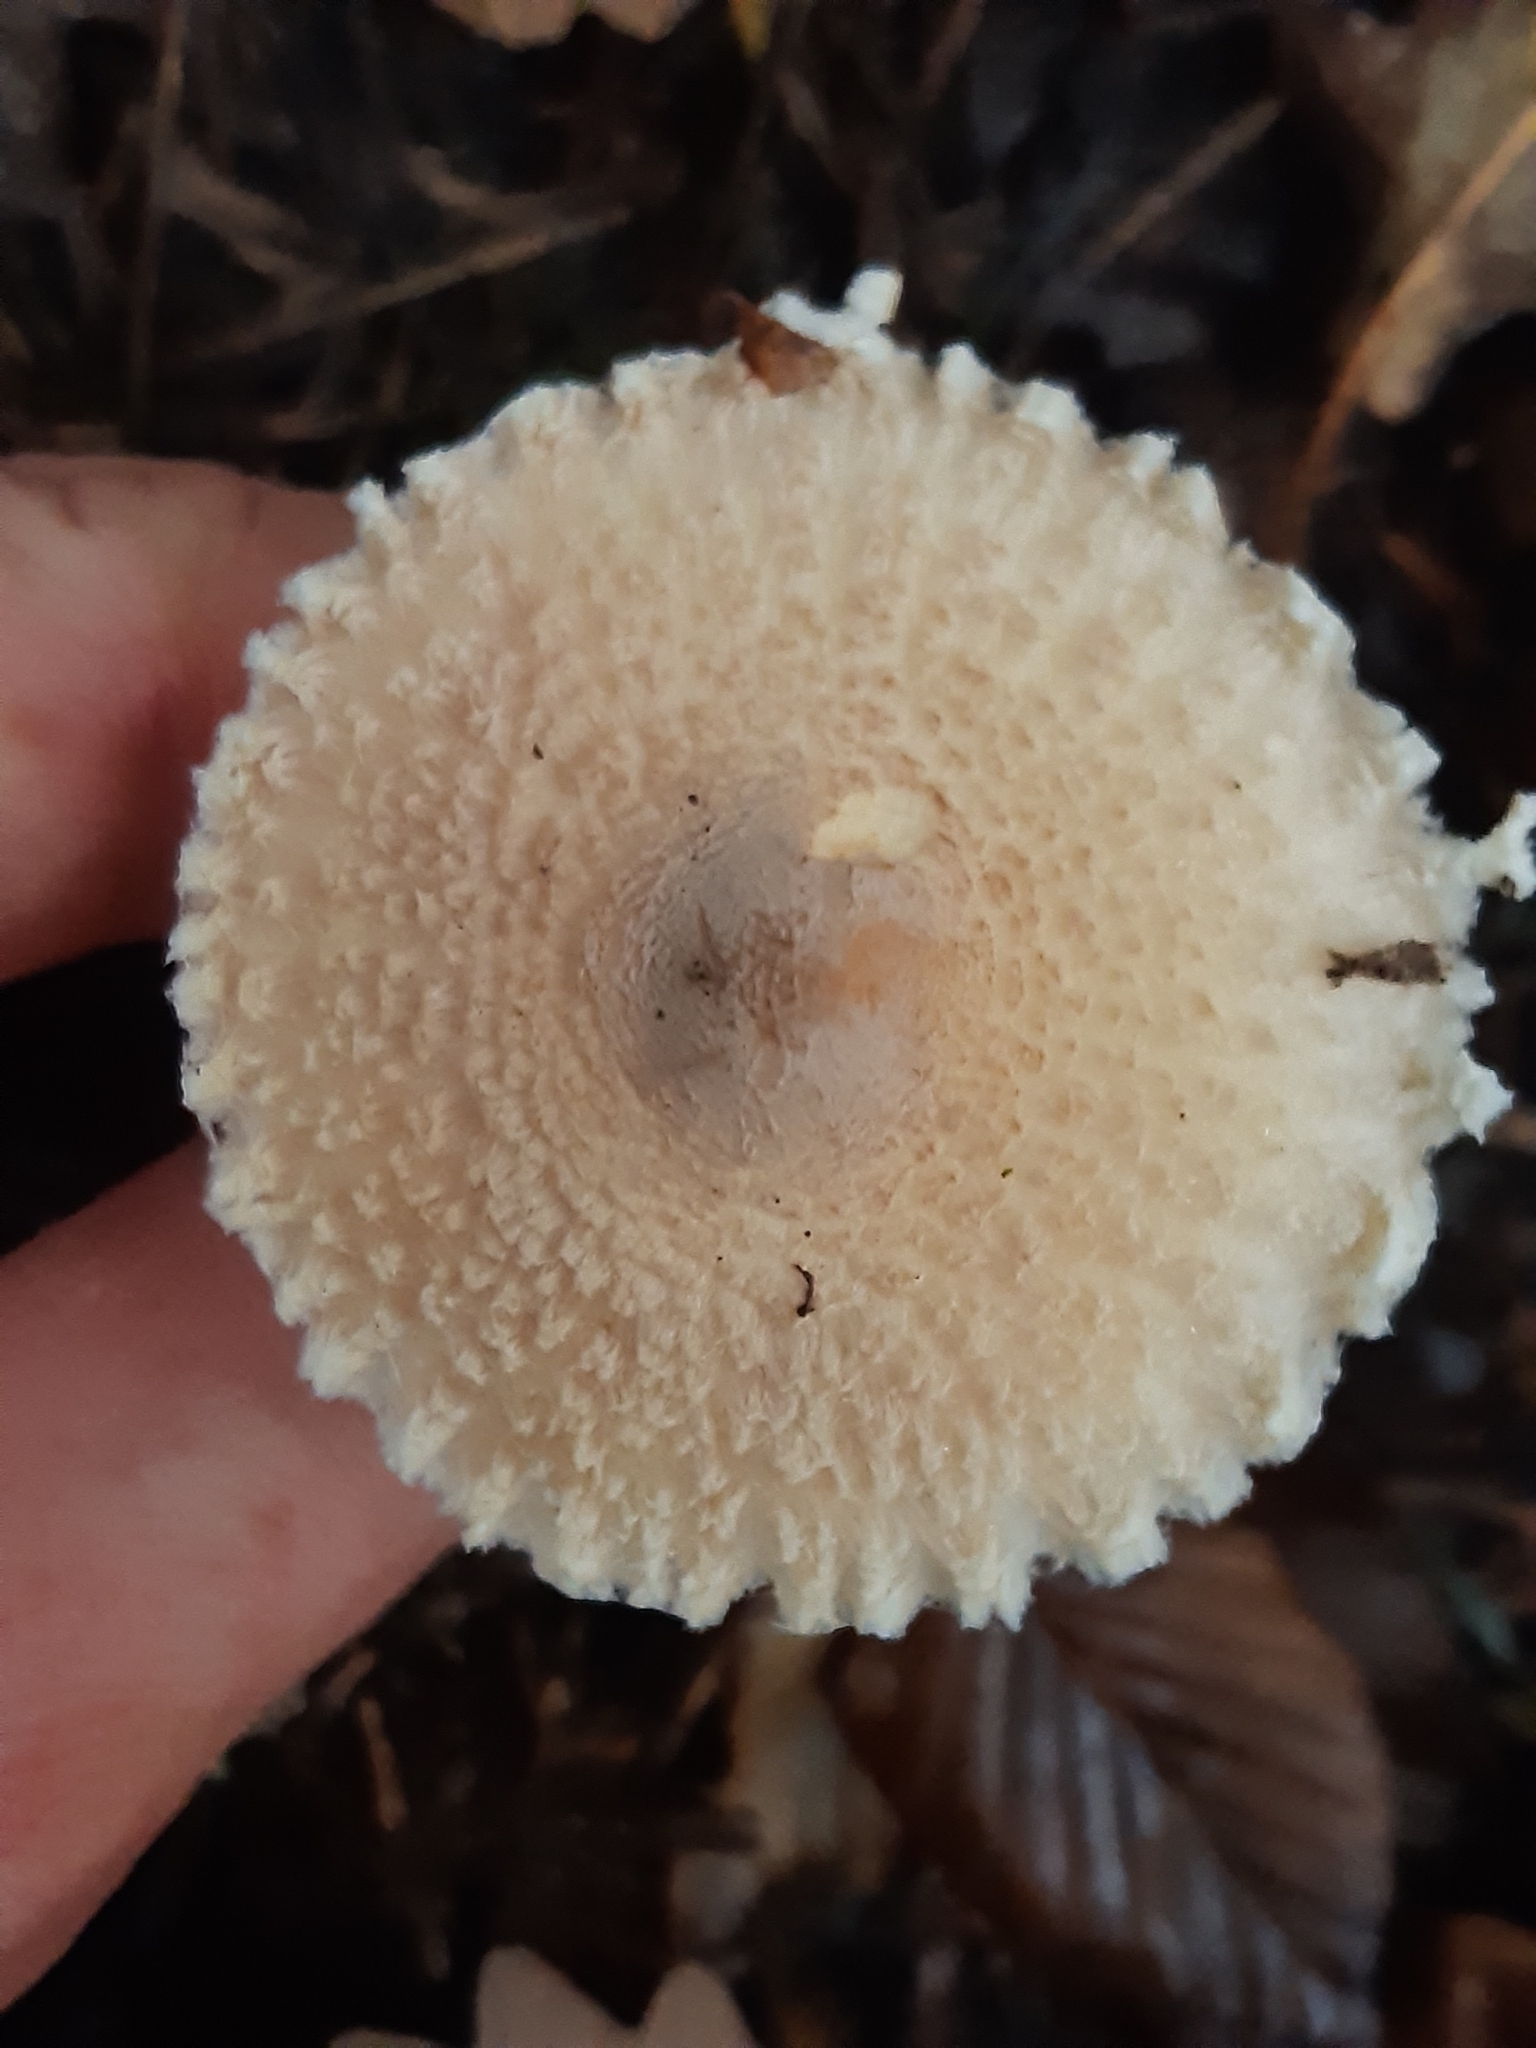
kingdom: Fungi
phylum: Basidiomycota
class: Agaricomycetes
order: Agaricales
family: Agaricaceae
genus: Lepiota
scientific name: Lepiota clypeolaria
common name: Shield dapperling
